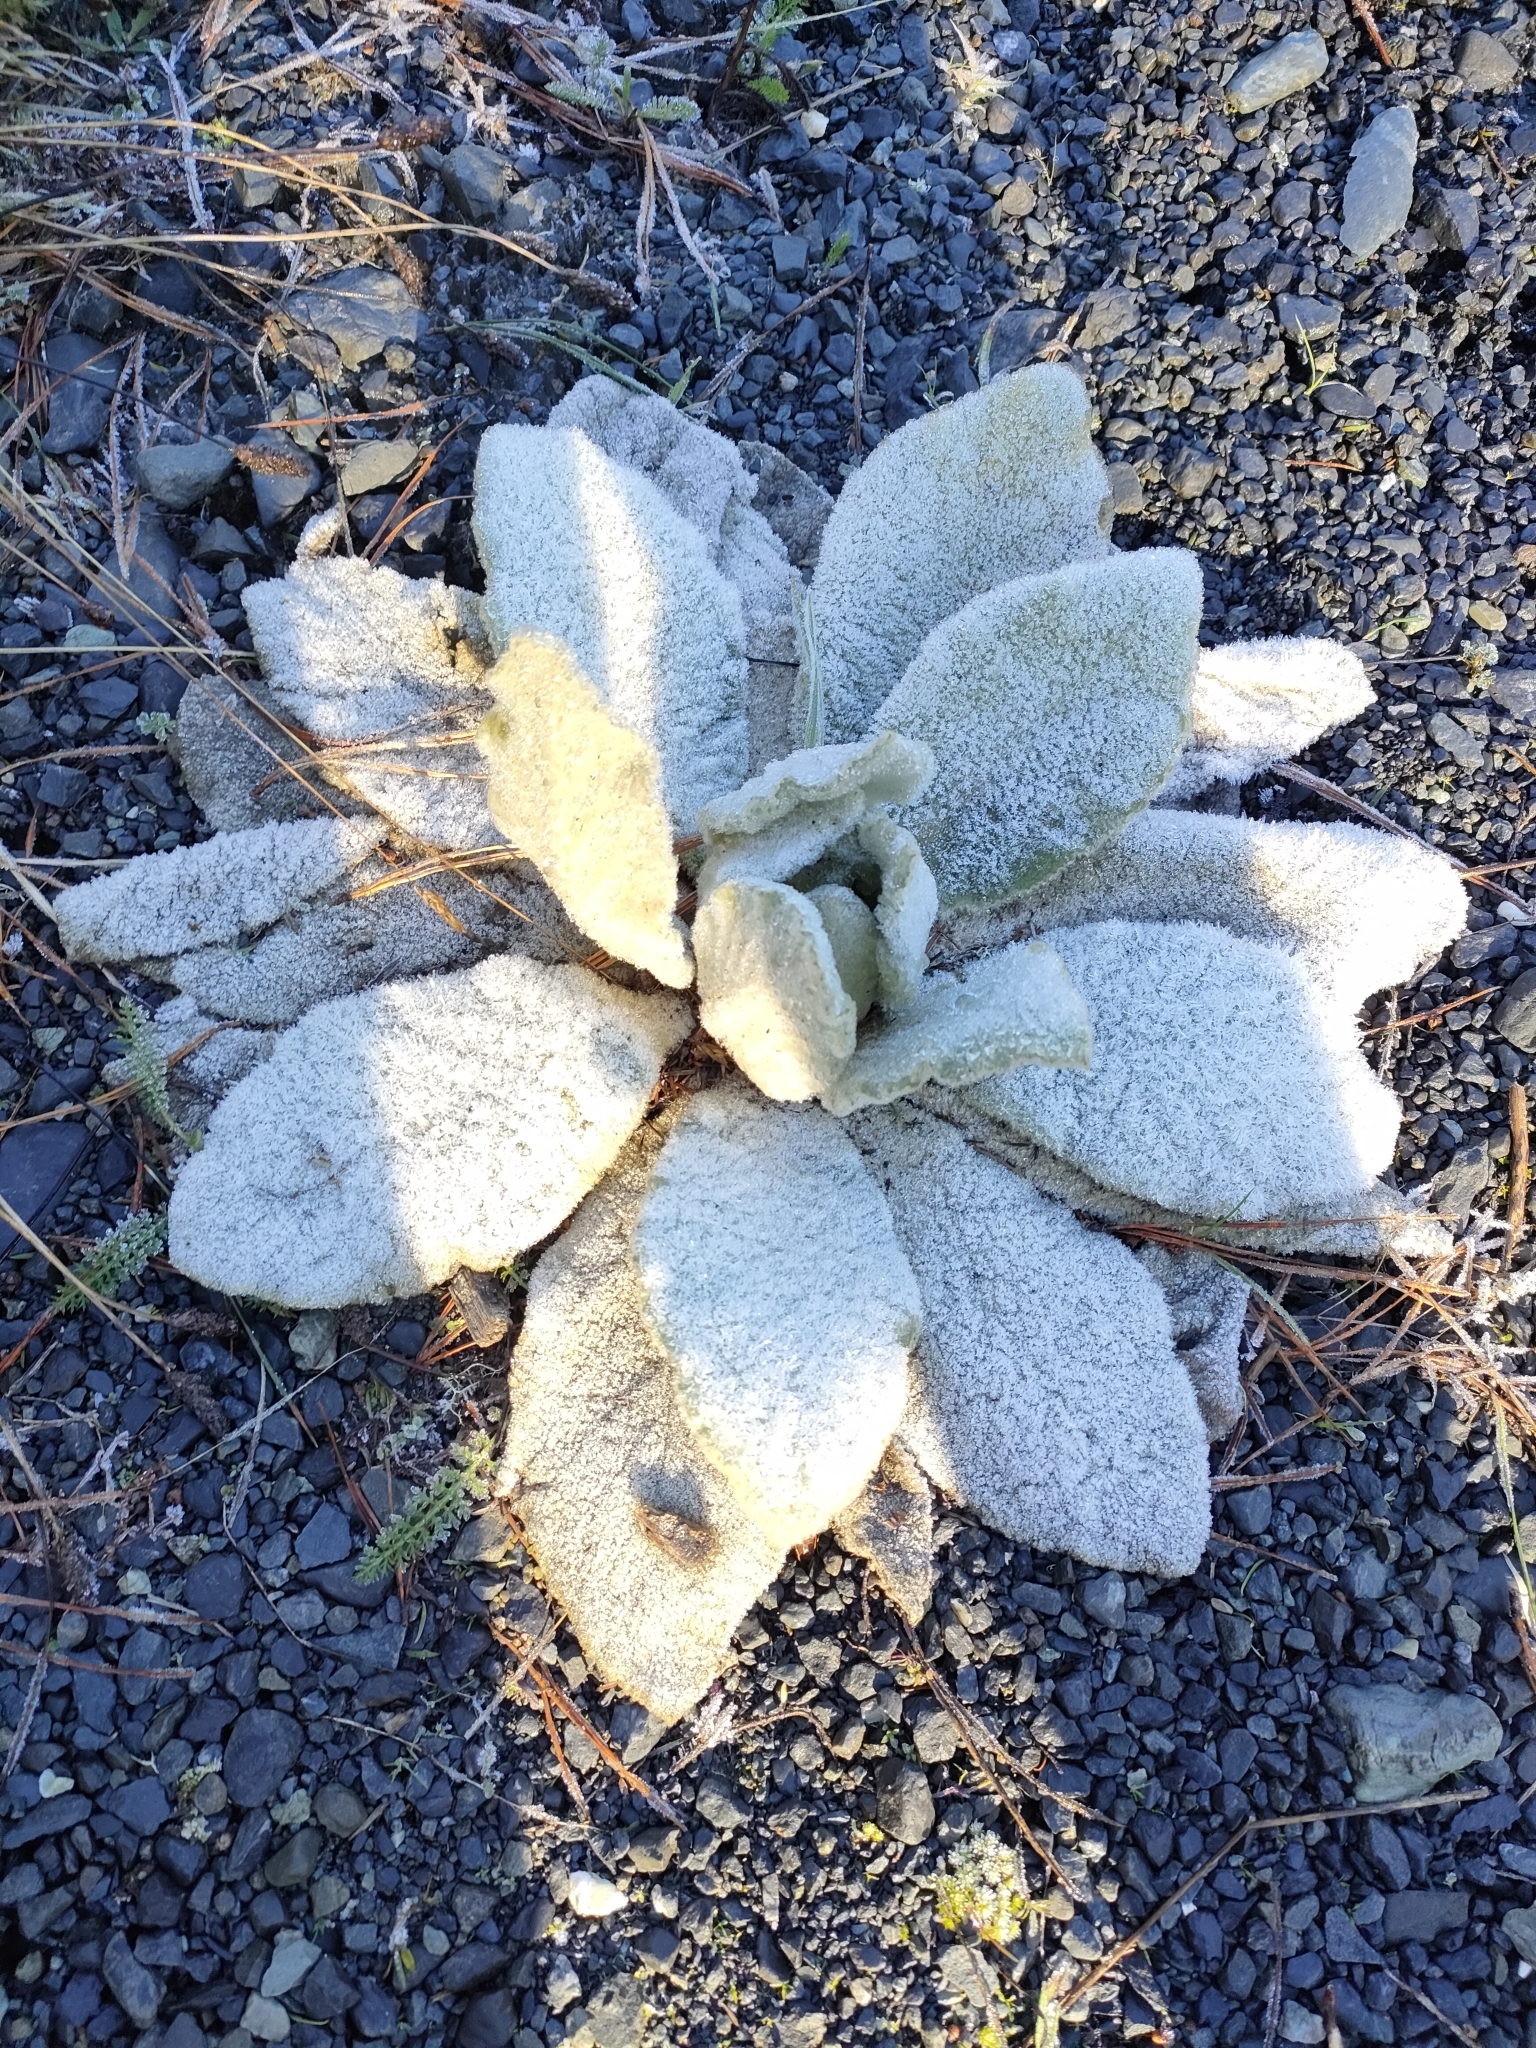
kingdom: Plantae
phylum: Tracheophyta
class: Magnoliopsida
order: Lamiales
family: Scrophulariaceae
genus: Verbascum
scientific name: Verbascum thapsus
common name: Common mullein
